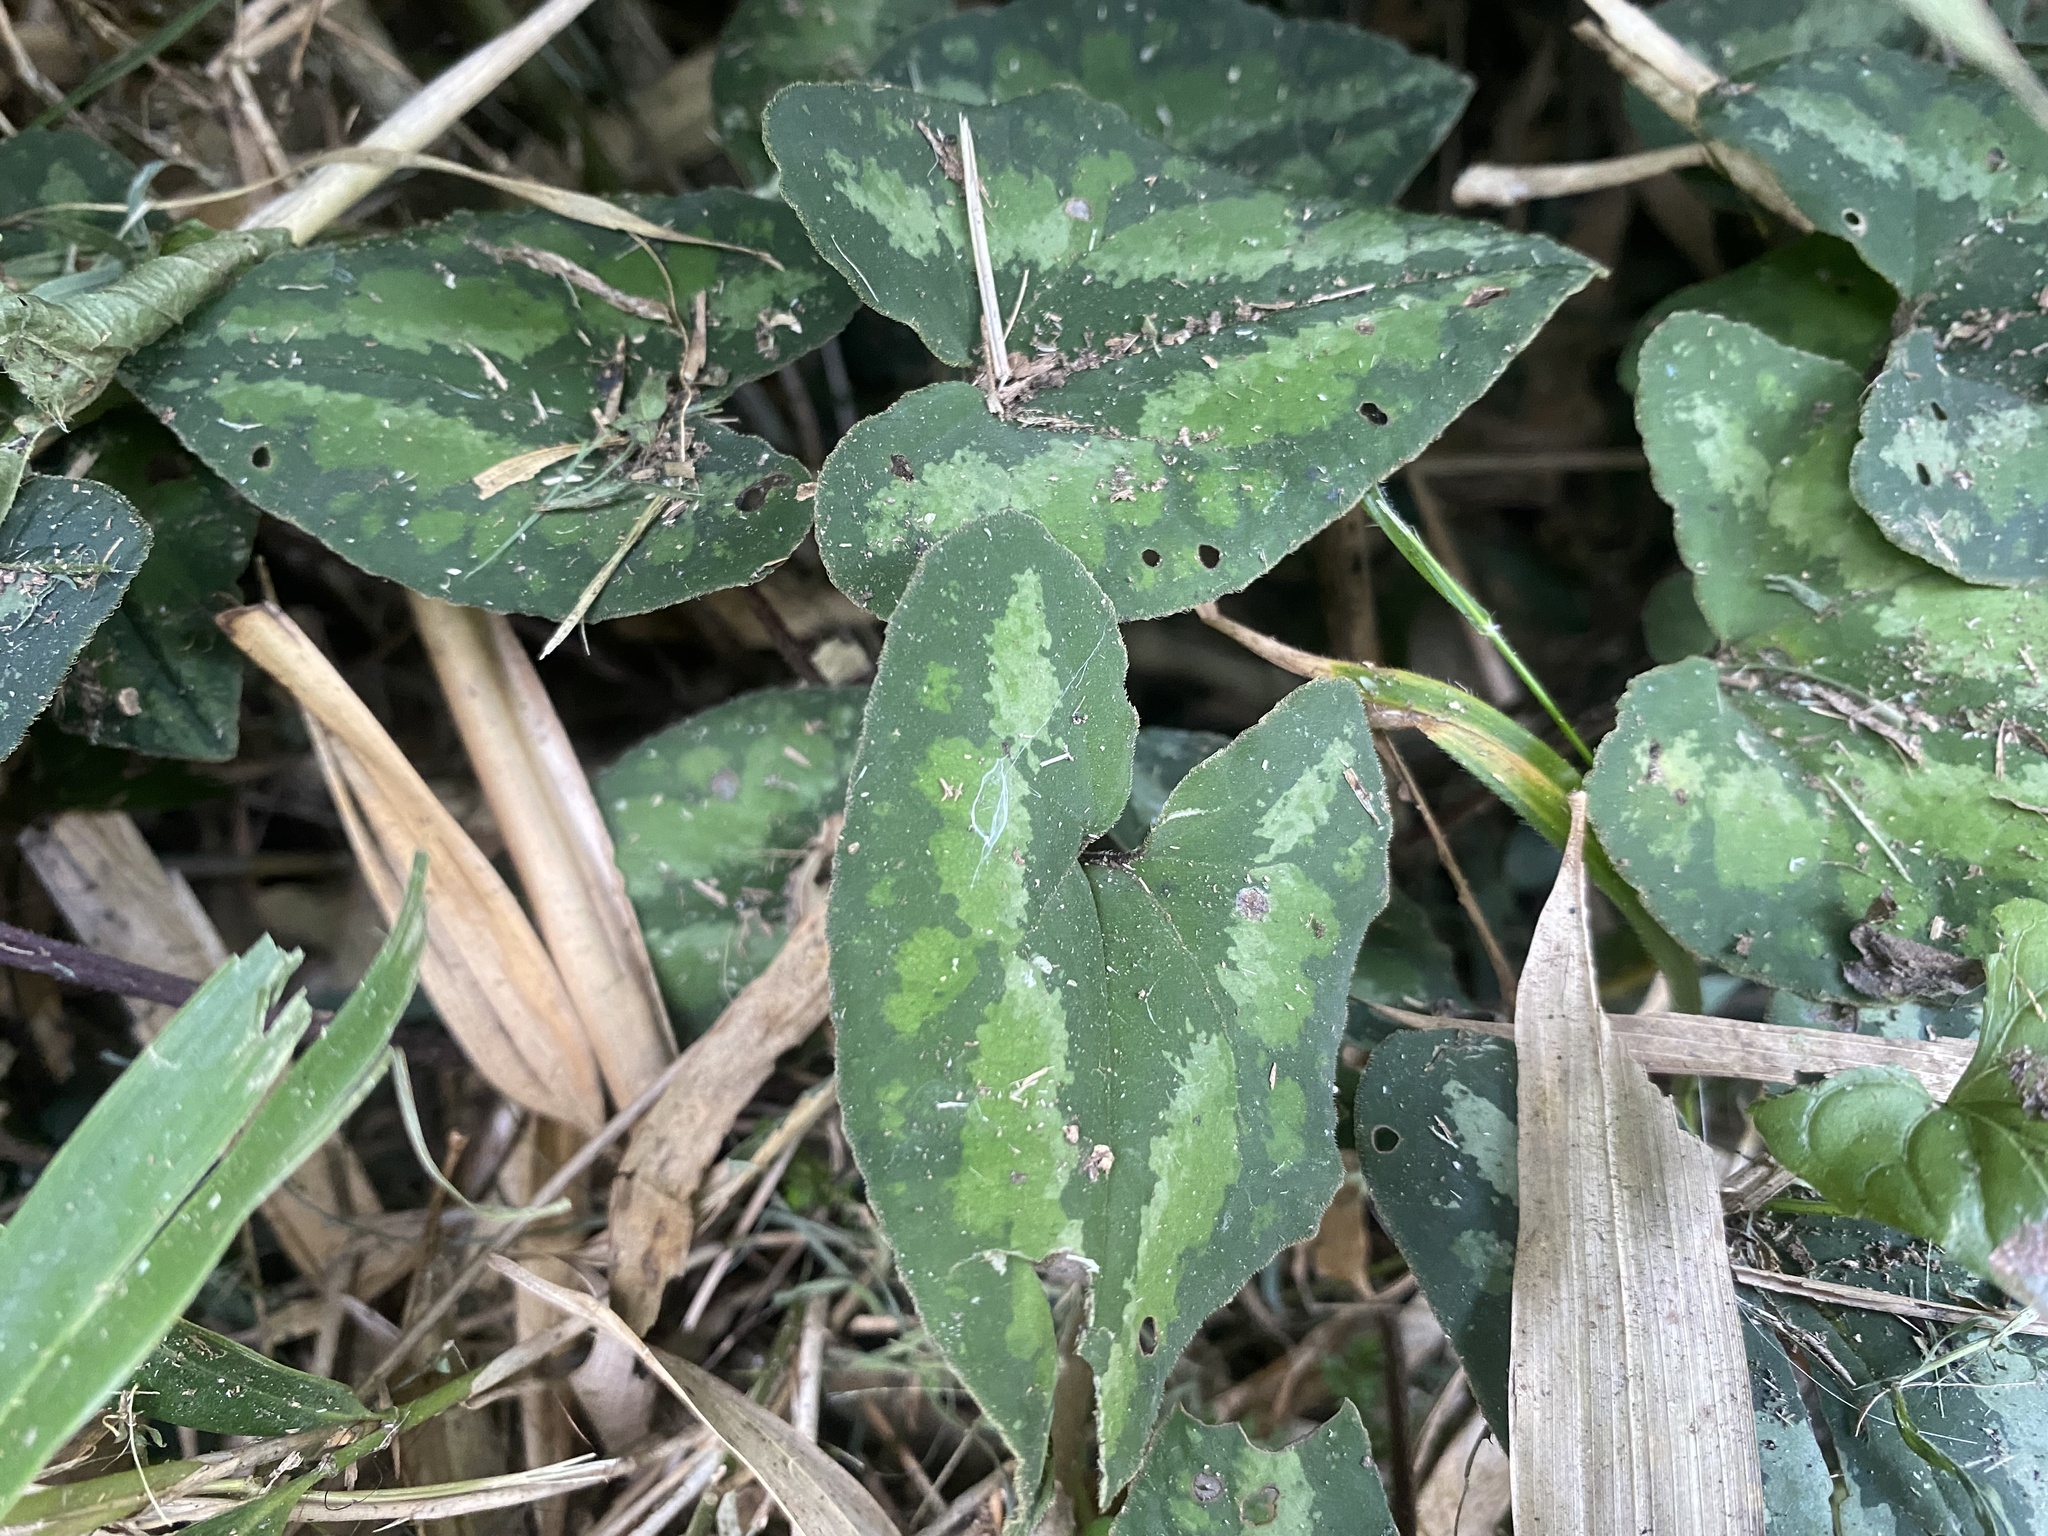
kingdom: Plantae
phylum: Tracheophyta
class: Magnoliopsida
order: Piperales
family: Aristolochiaceae
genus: Asarum
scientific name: Asarum macranthum
